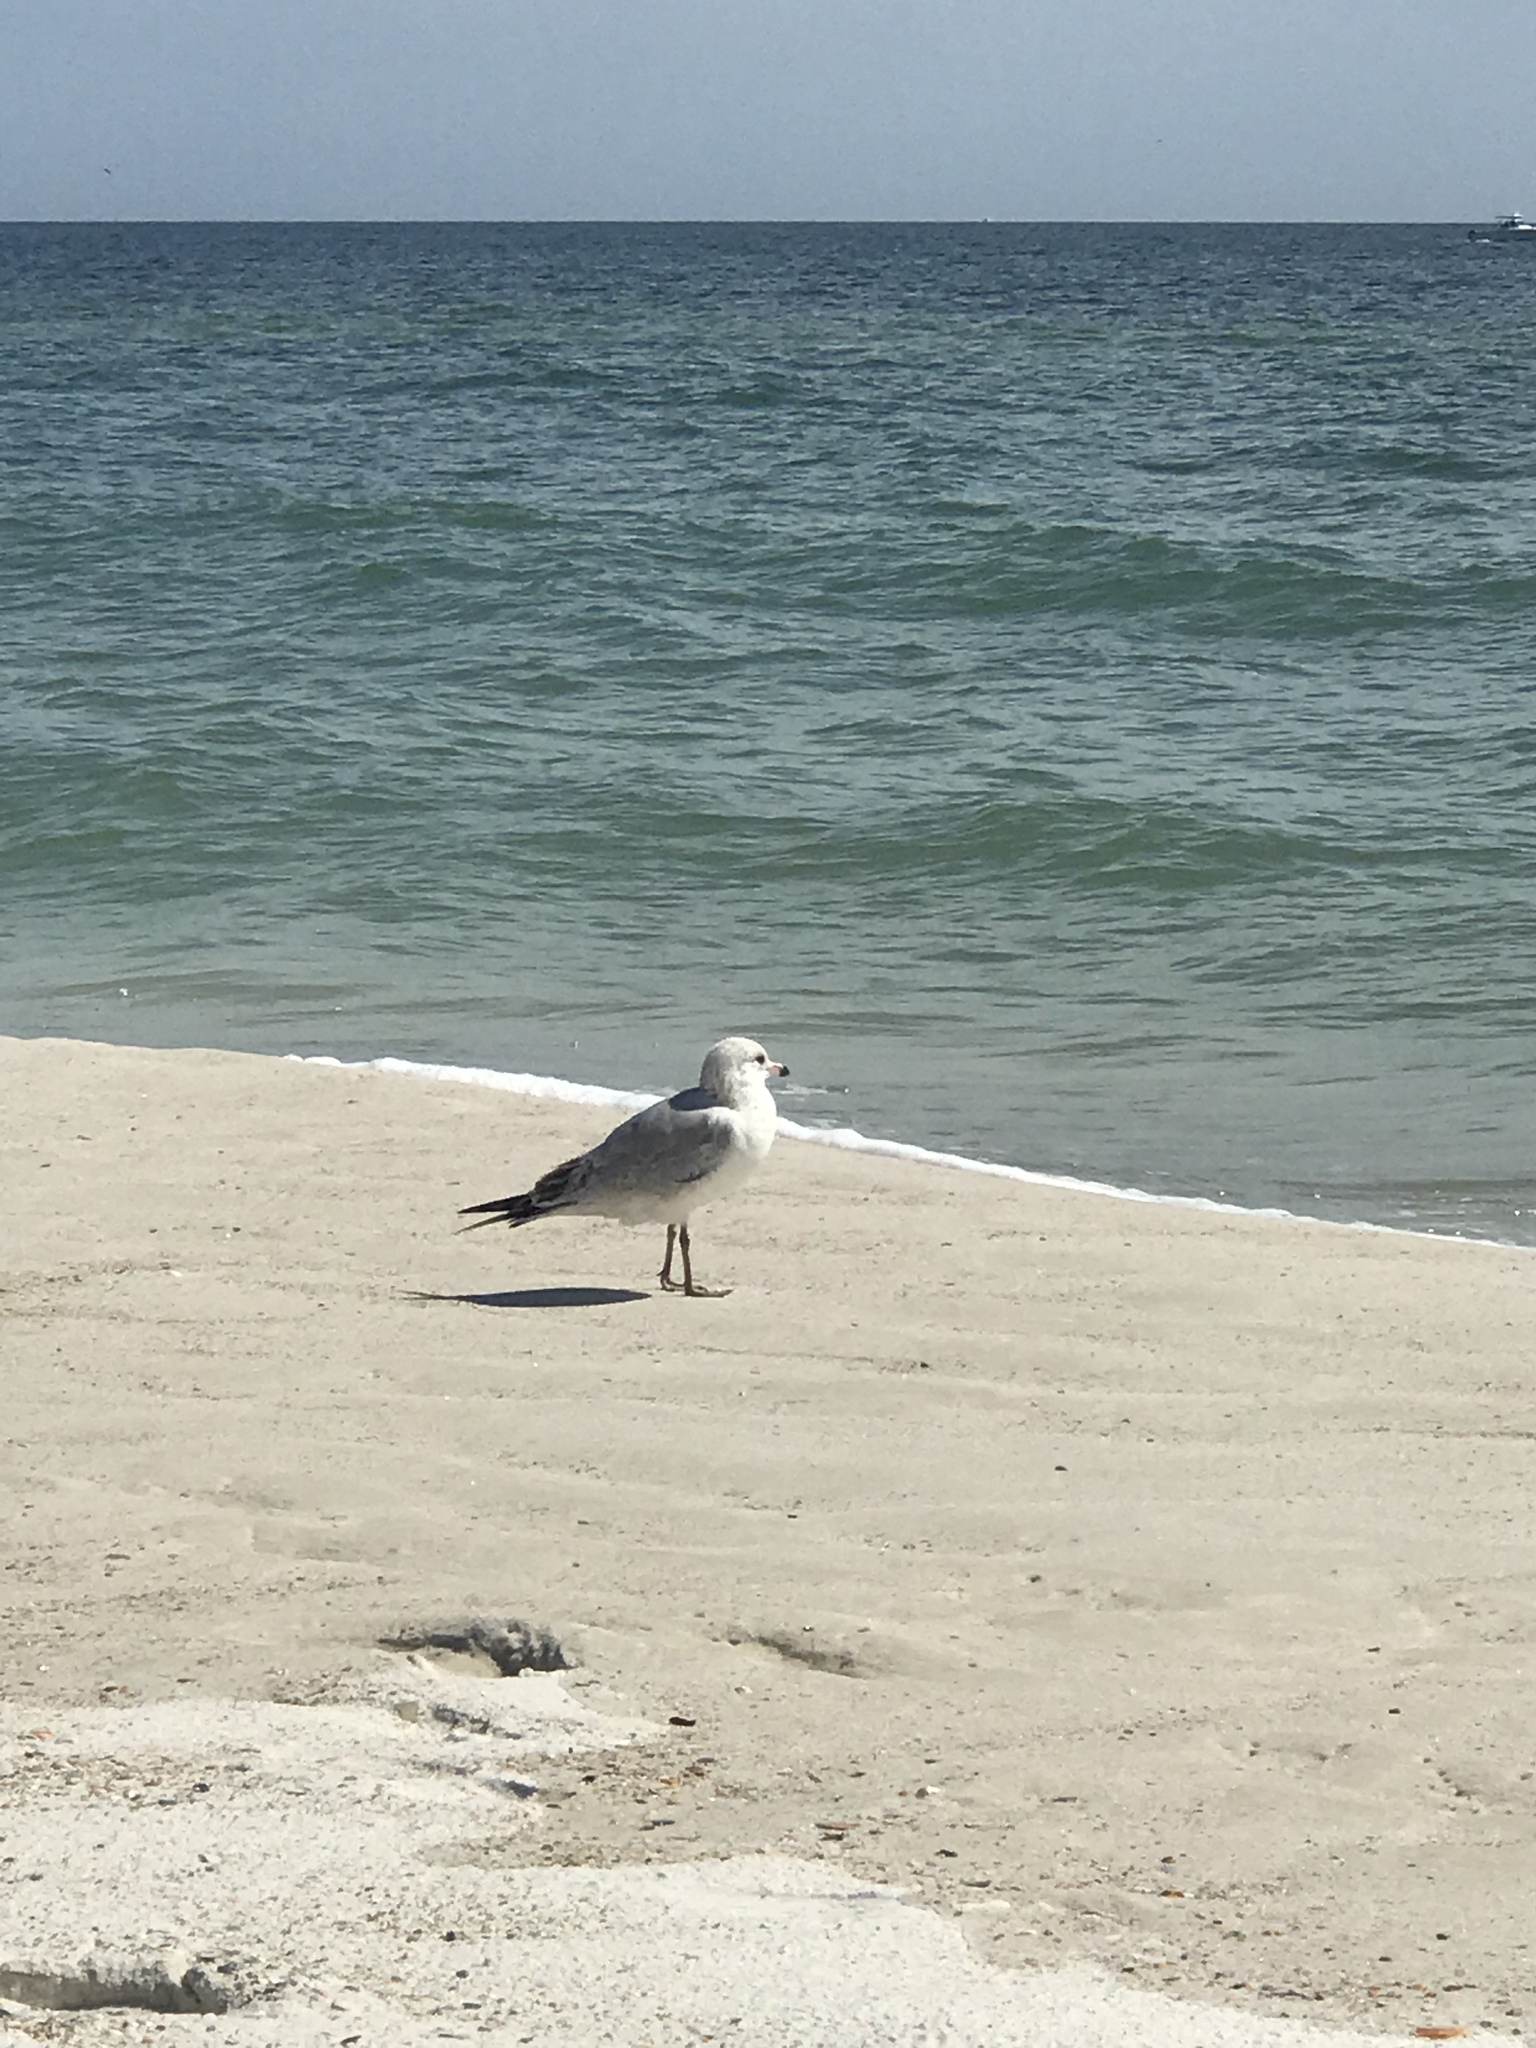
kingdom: Animalia
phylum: Chordata
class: Aves
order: Charadriiformes
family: Laridae
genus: Larus
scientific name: Larus delawarensis
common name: Ring-billed gull
